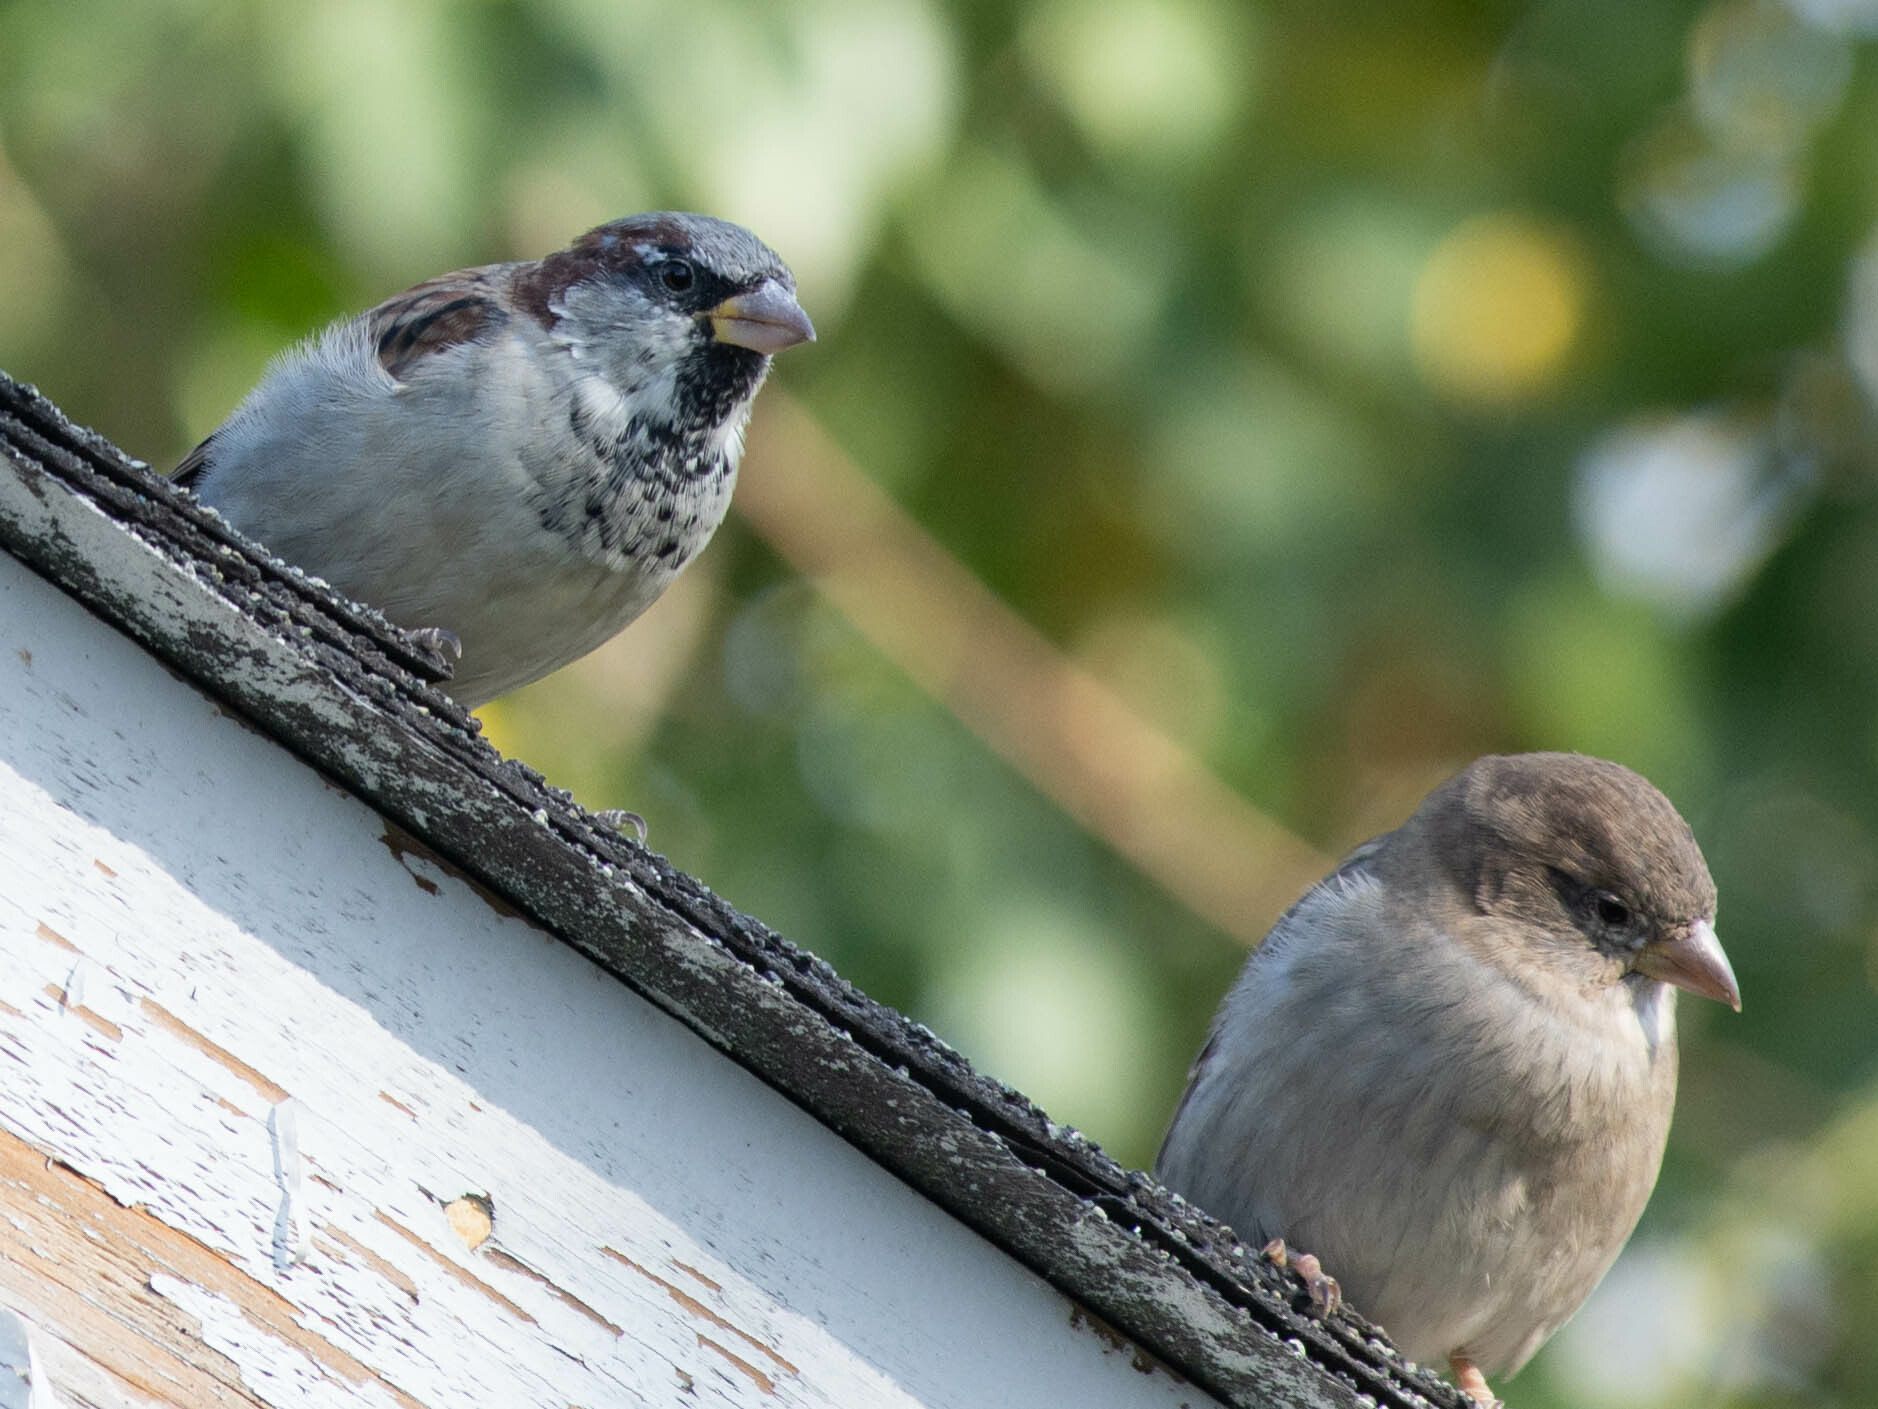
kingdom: Animalia
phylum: Chordata
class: Aves
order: Passeriformes
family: Passeridae
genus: Passer
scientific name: Passer domesticus
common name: House sparrow
